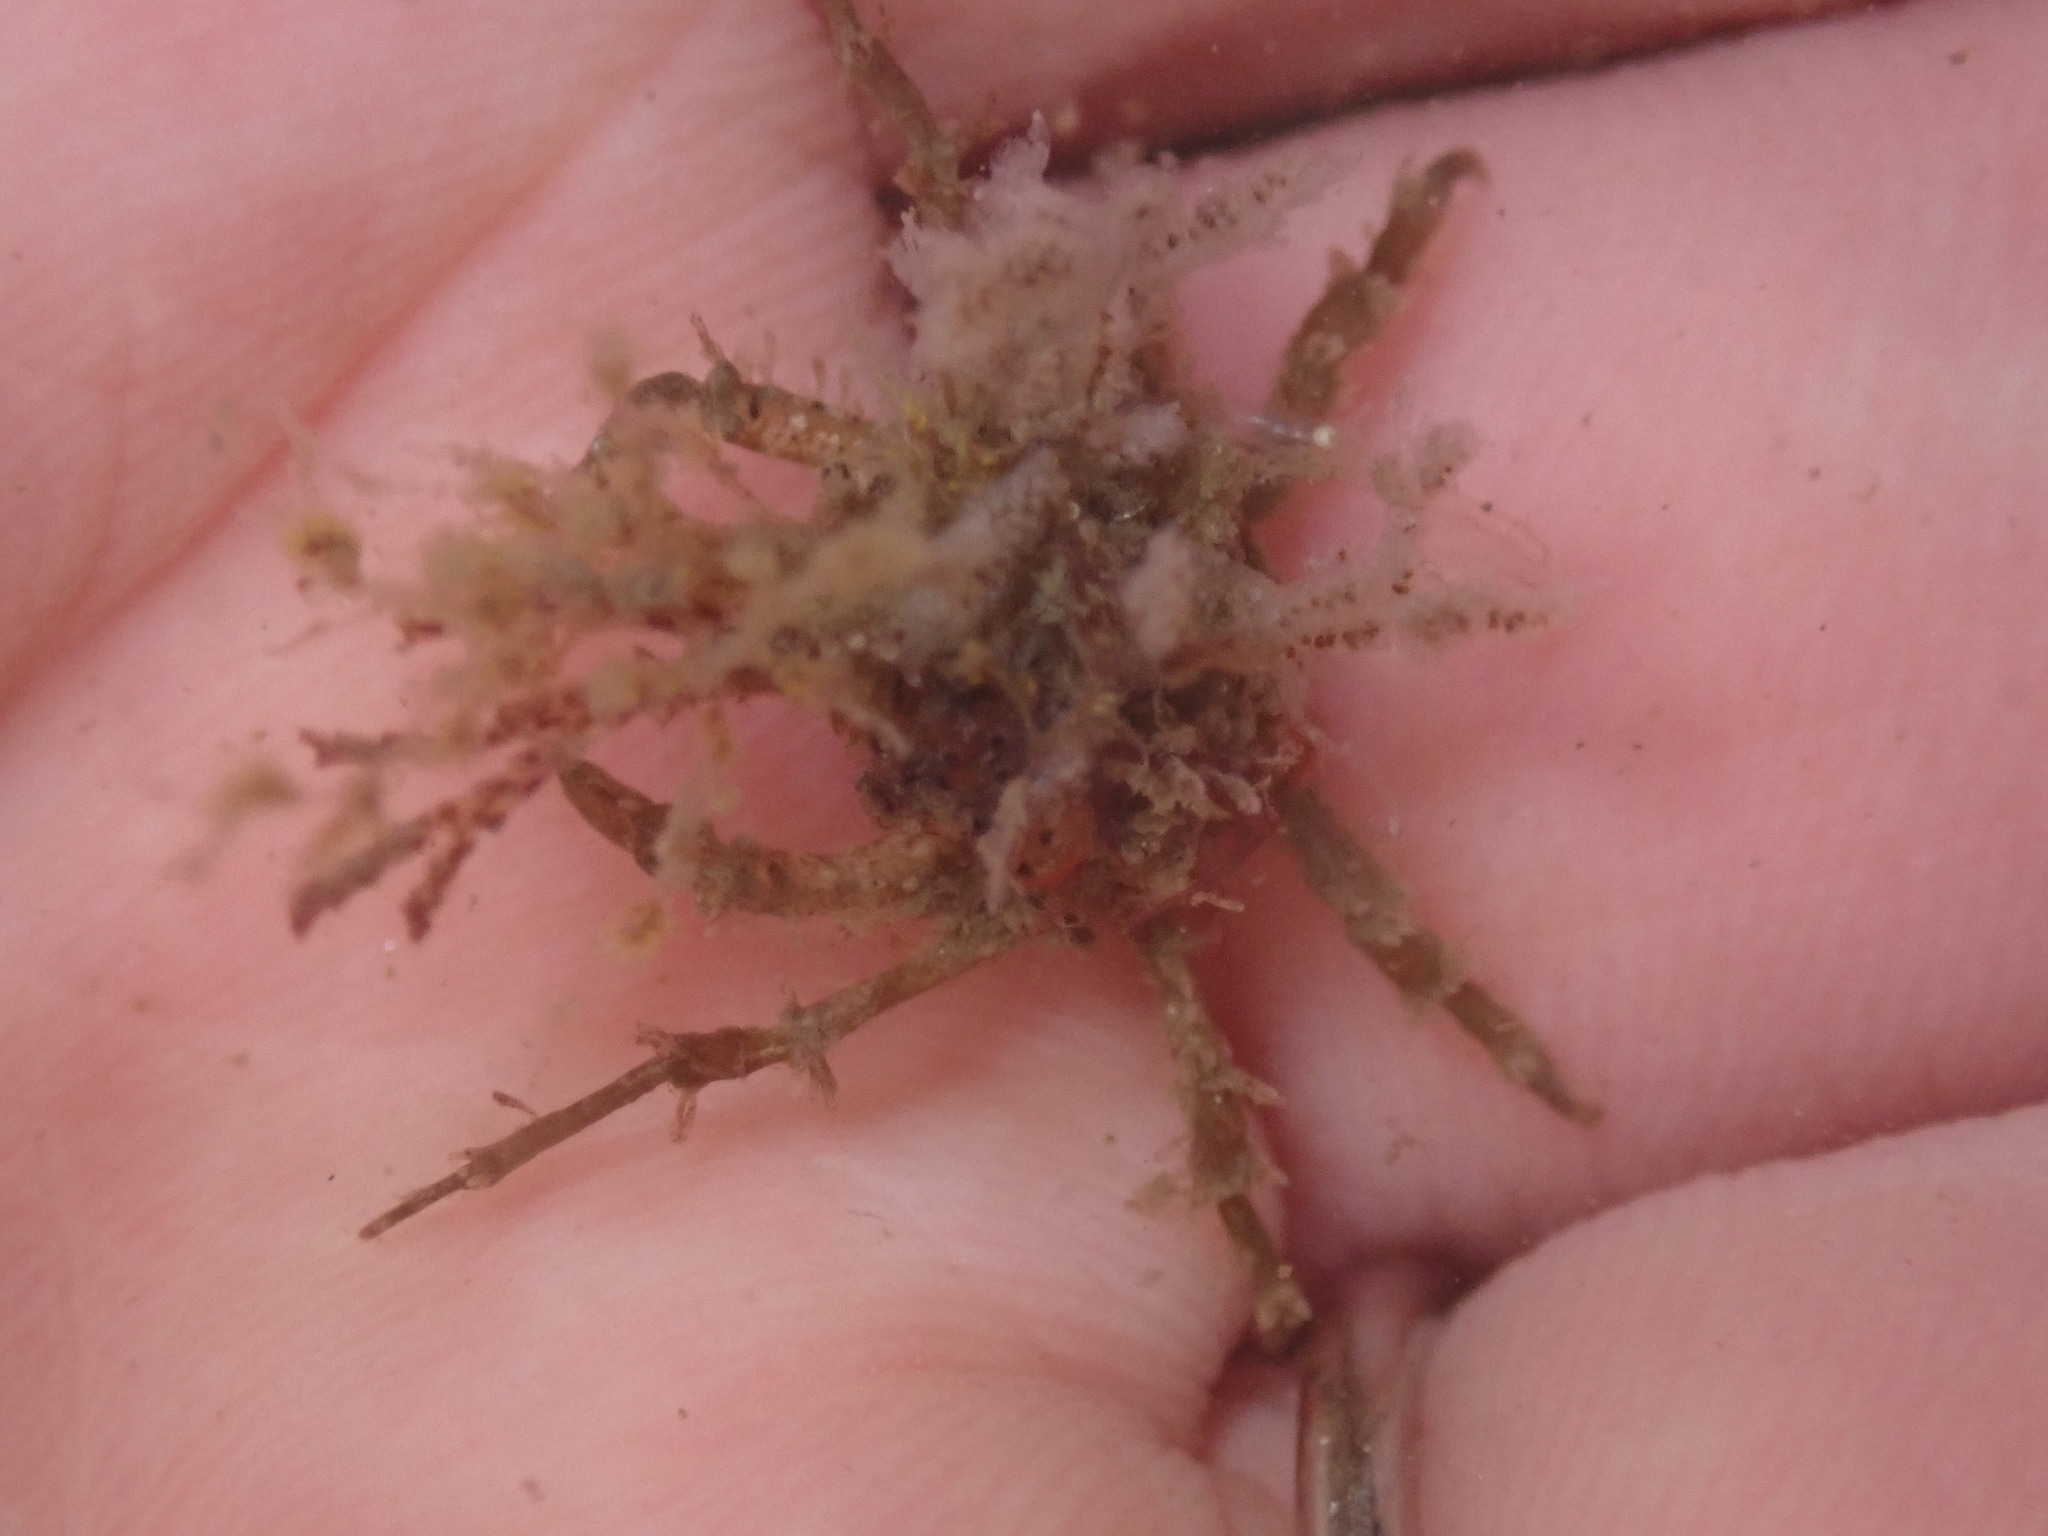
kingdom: Animalia
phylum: Arthropoda
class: Malacostraca
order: Decapoda
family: Epialtidae
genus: Pugettia
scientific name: Pugettia dalli
